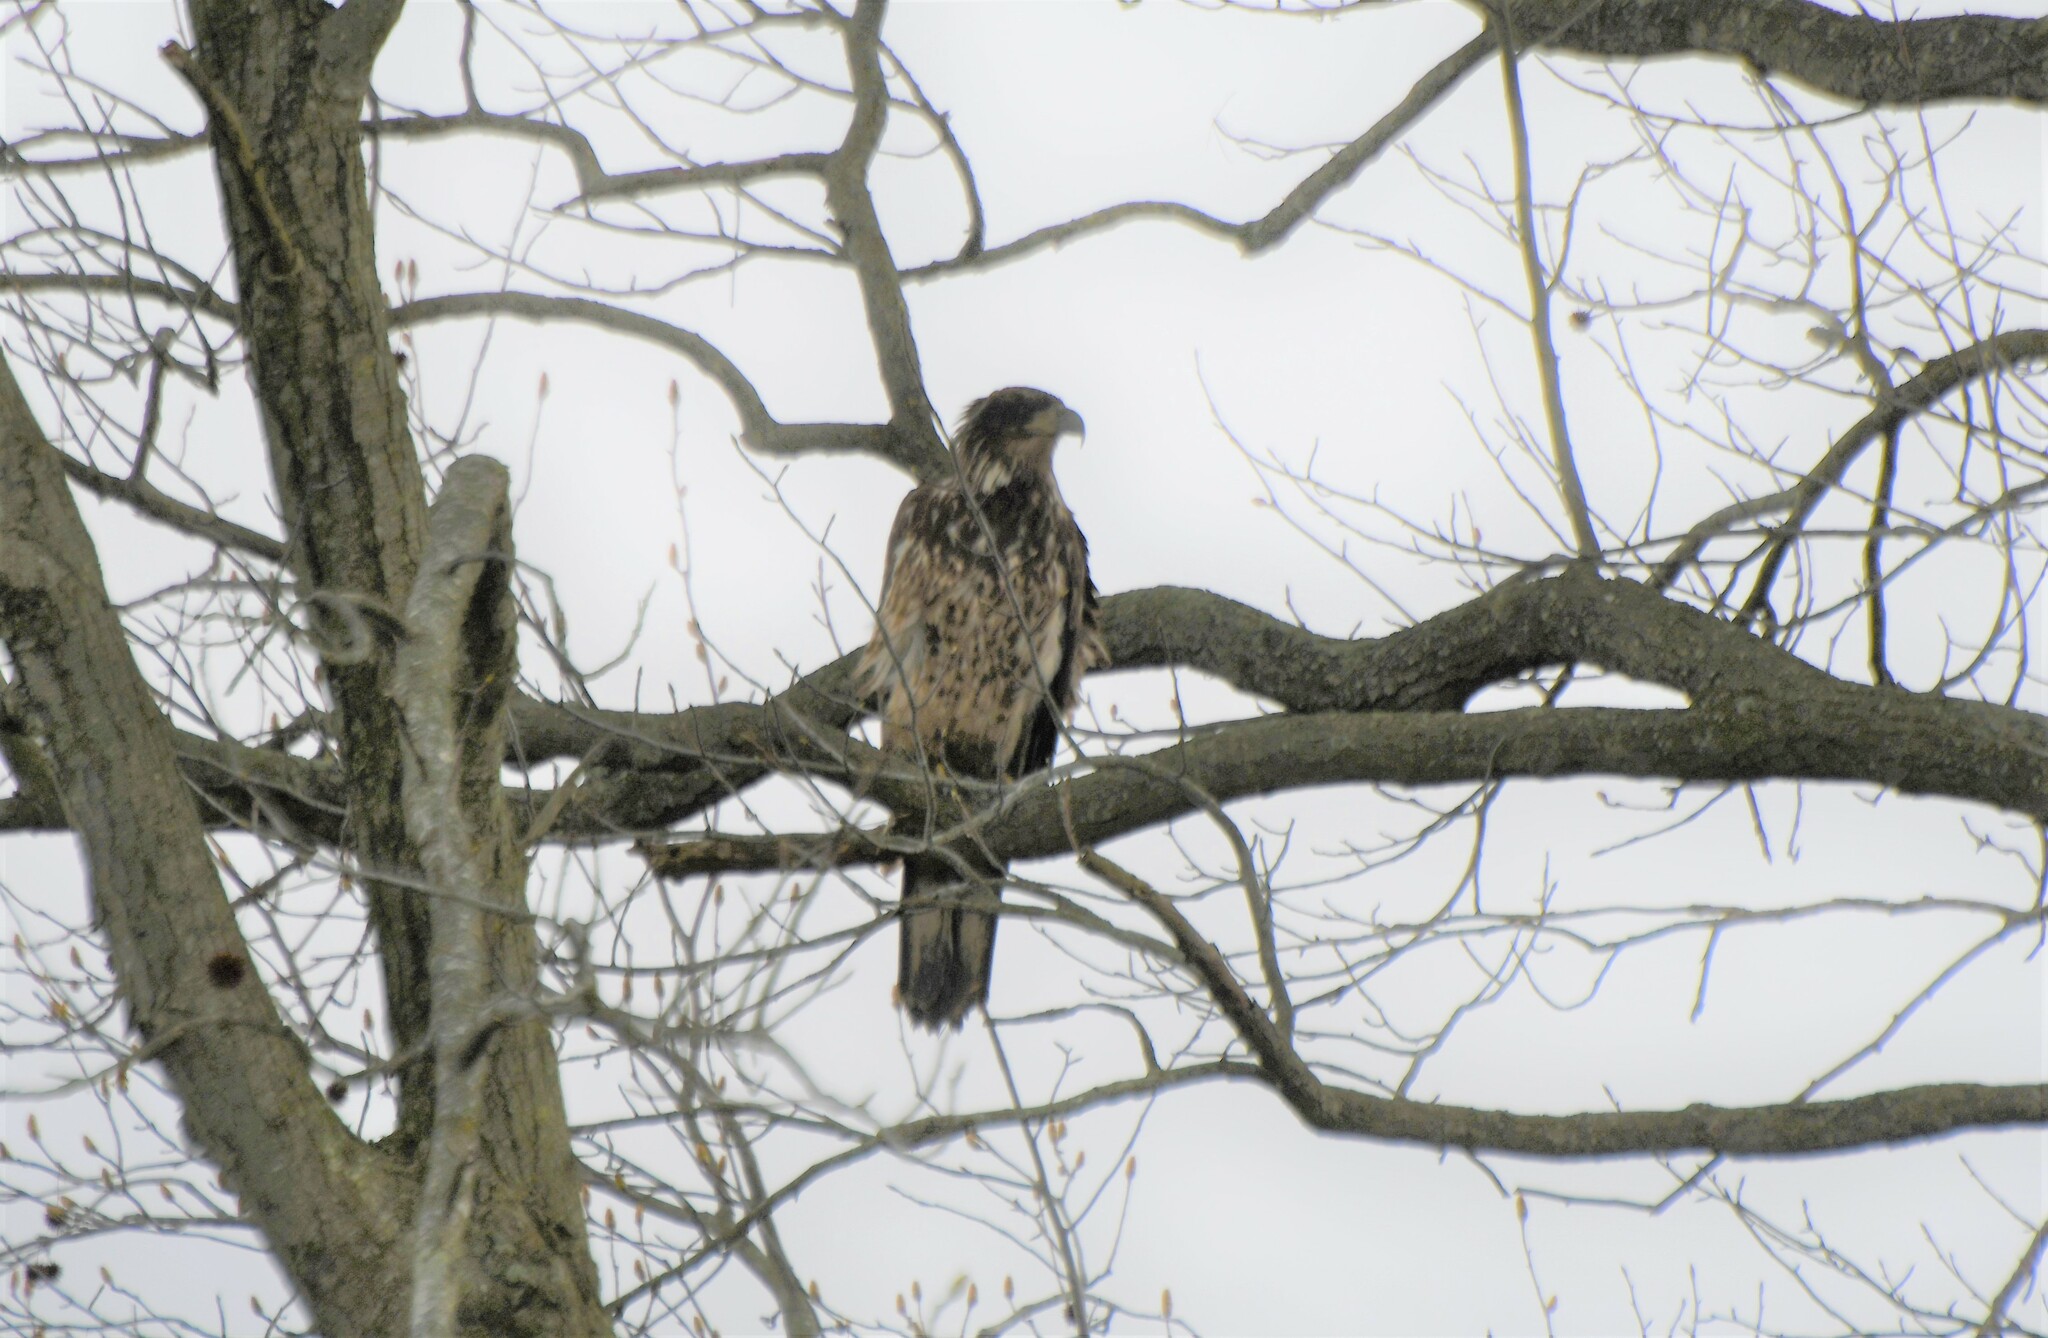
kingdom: Animalia
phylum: Chordata
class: Aves
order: Accipitriformes
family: Accipitridae
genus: Haliaeetus
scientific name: Haliaeetus leucocephalus
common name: Bald eagle
